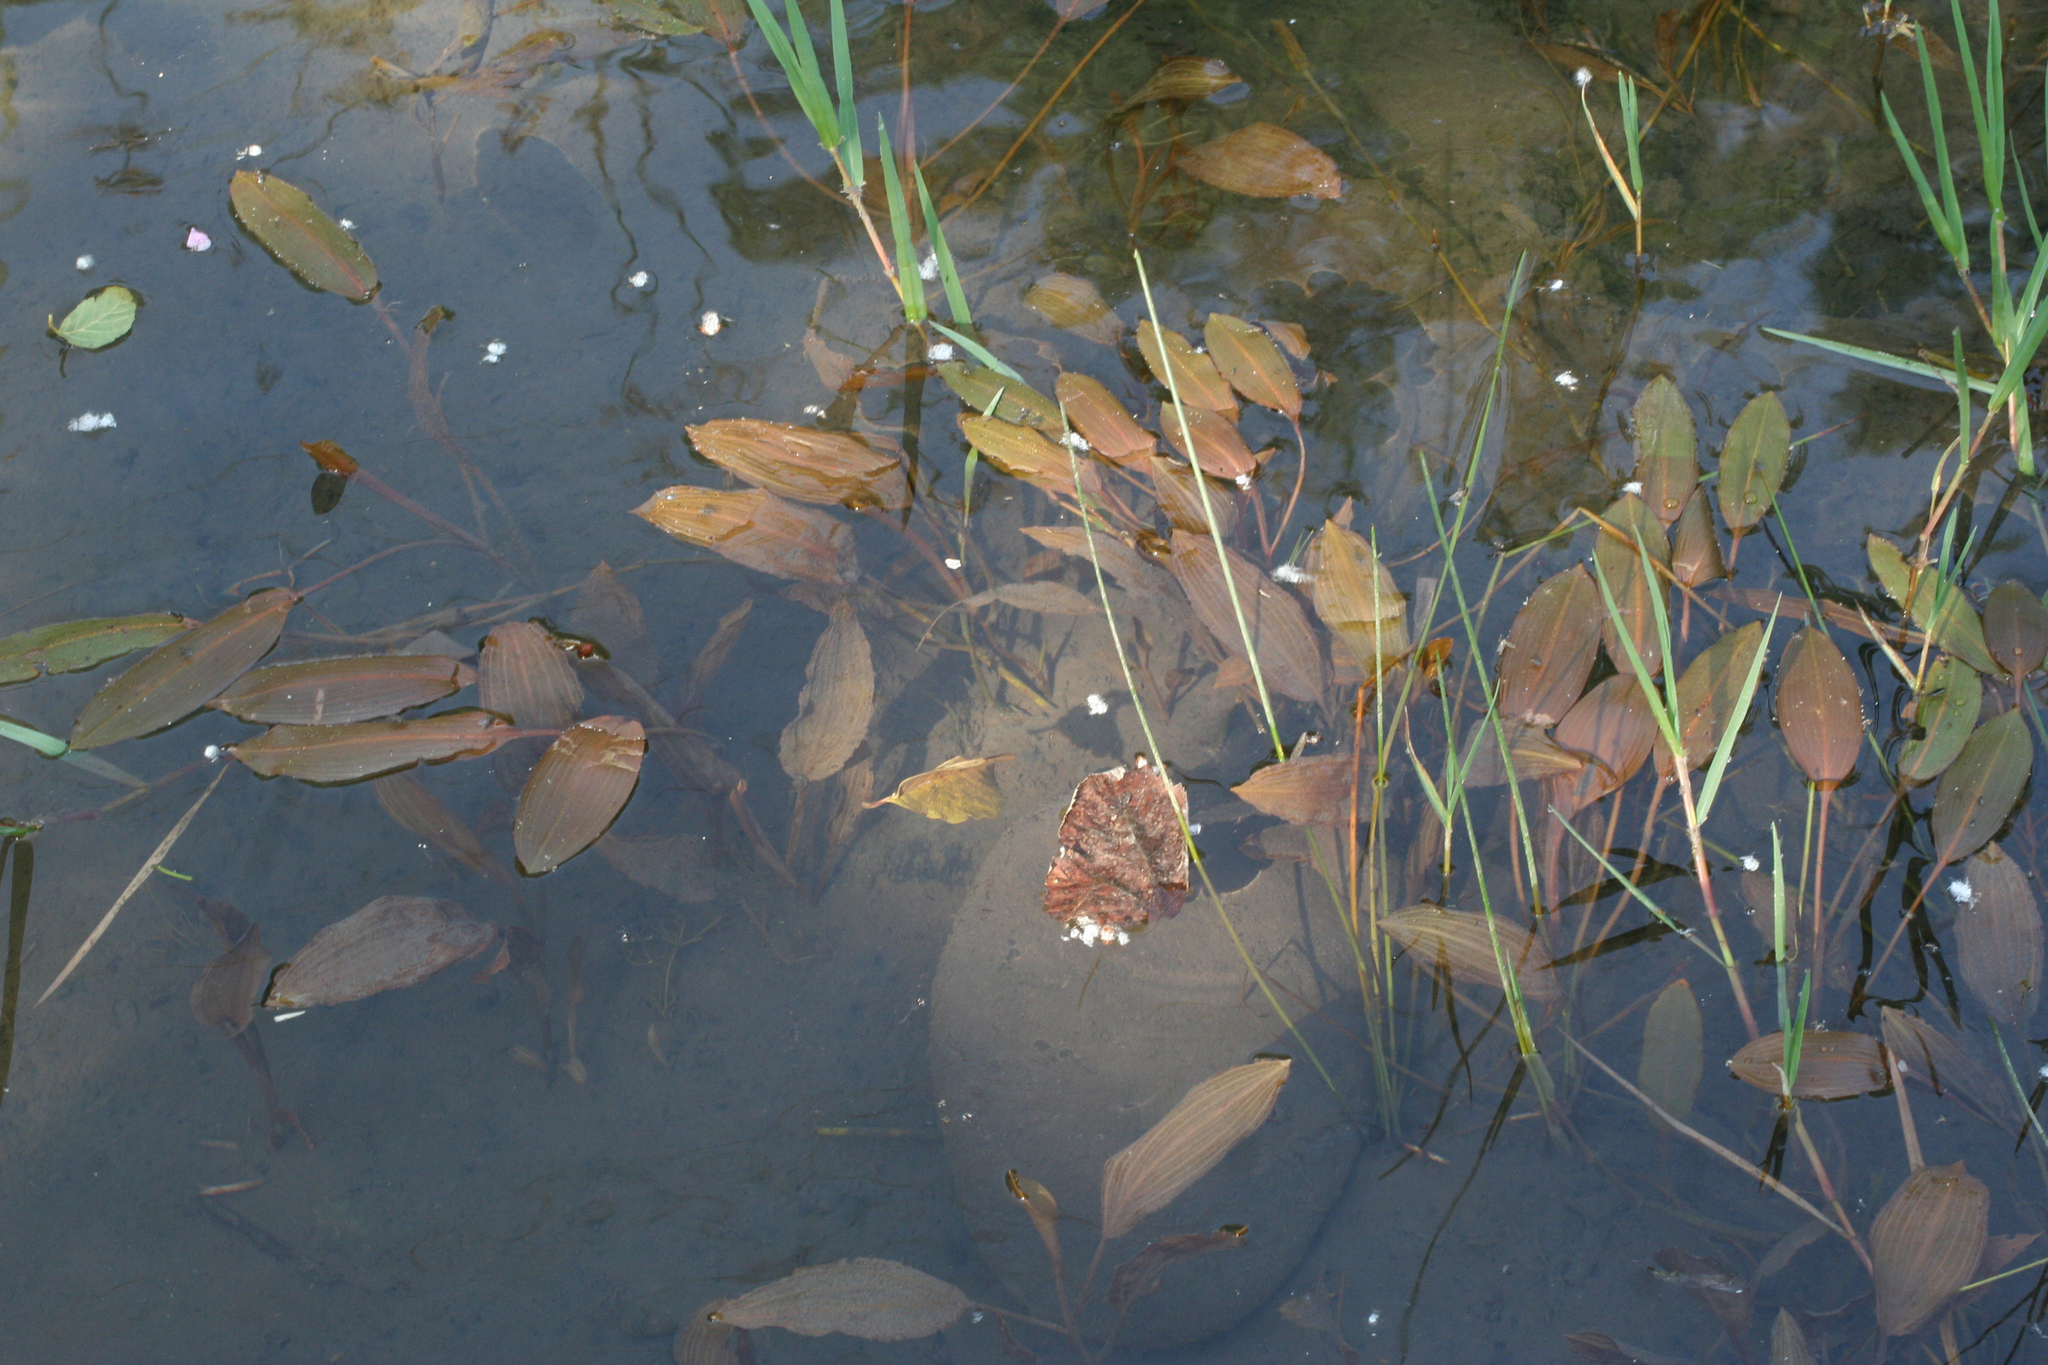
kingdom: Plantae
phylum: Tracheophyta
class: Liliopsida
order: Alismatales
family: Potamogetonaceae
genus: Potamogeton
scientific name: Potamogeton nodosus
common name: Loddon pondweed
